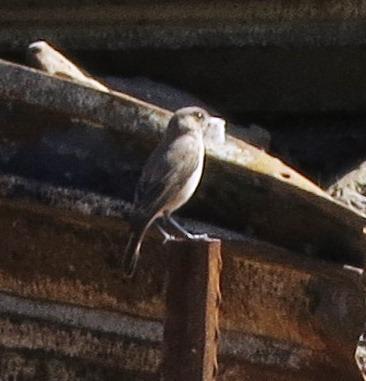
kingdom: Animalia
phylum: Chordata
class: Aves
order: Passeriformes
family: Muscicapidae
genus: Oenanthe
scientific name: Oenanthe familiaris
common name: Familiar chat
